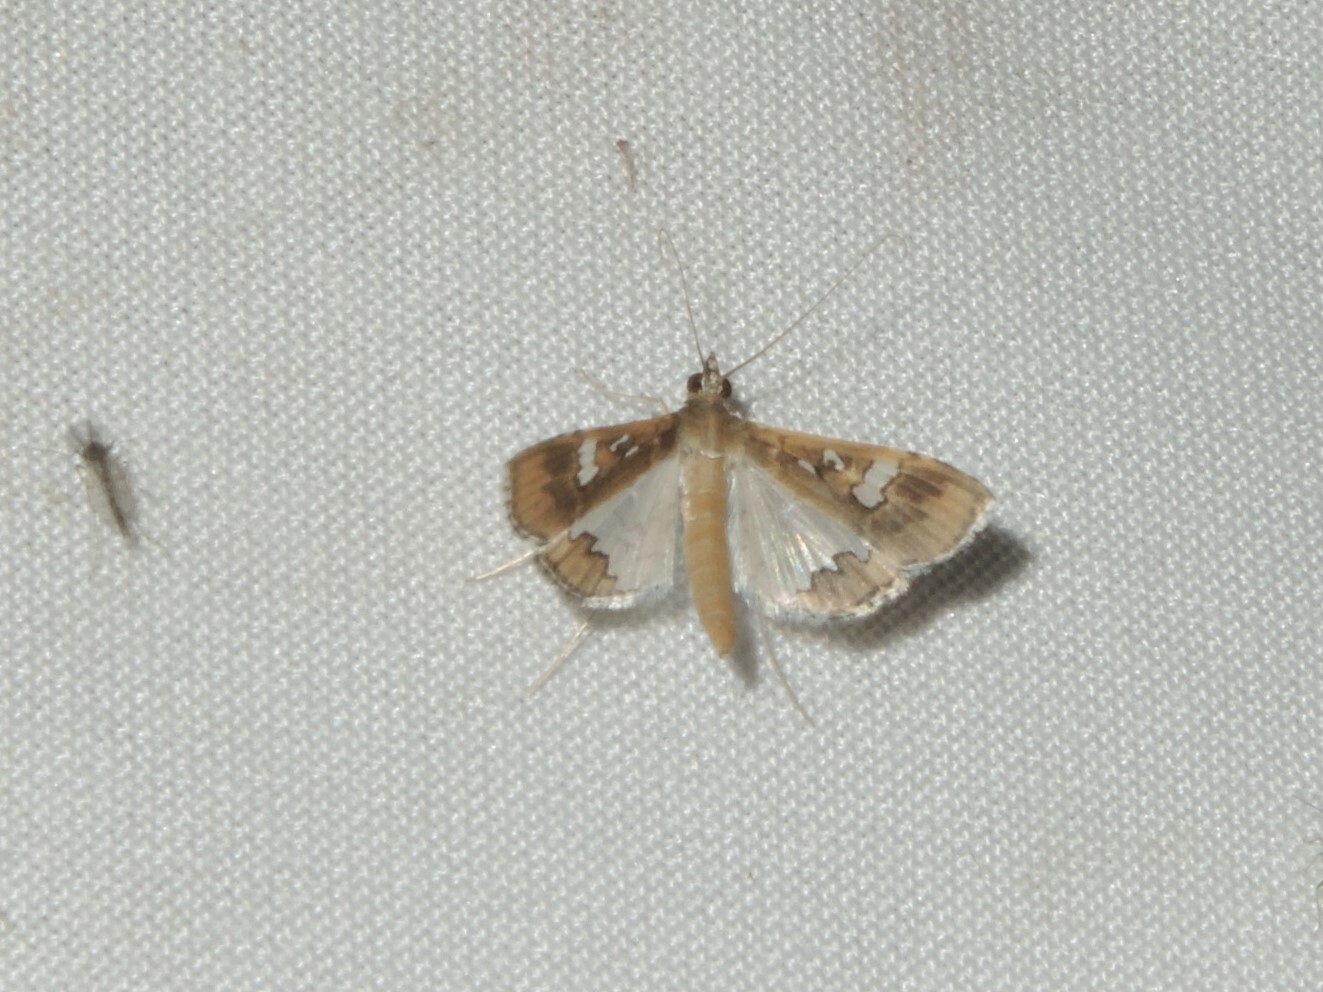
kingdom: Animalia
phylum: Arthropoda
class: Insecta
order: Lepidoptera
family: Crambidae
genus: Maruca
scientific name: Maruca vitrata
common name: Maruca pod borer
